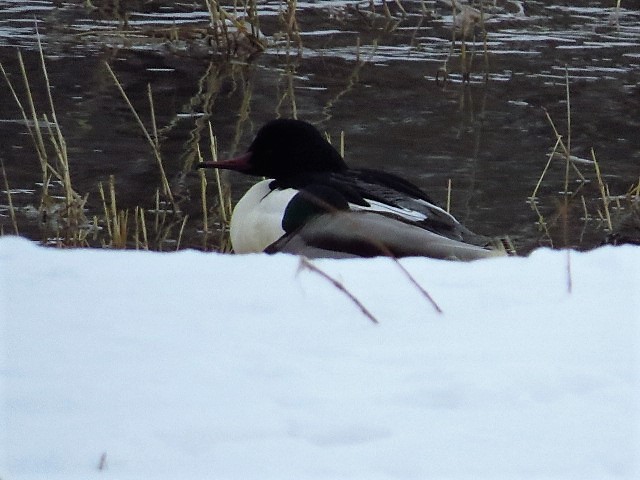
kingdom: Animalia
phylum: Chordata
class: Aves
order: Anseriformes
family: Anatidae
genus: Mergus
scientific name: Mergus merganser
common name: Common merganser
